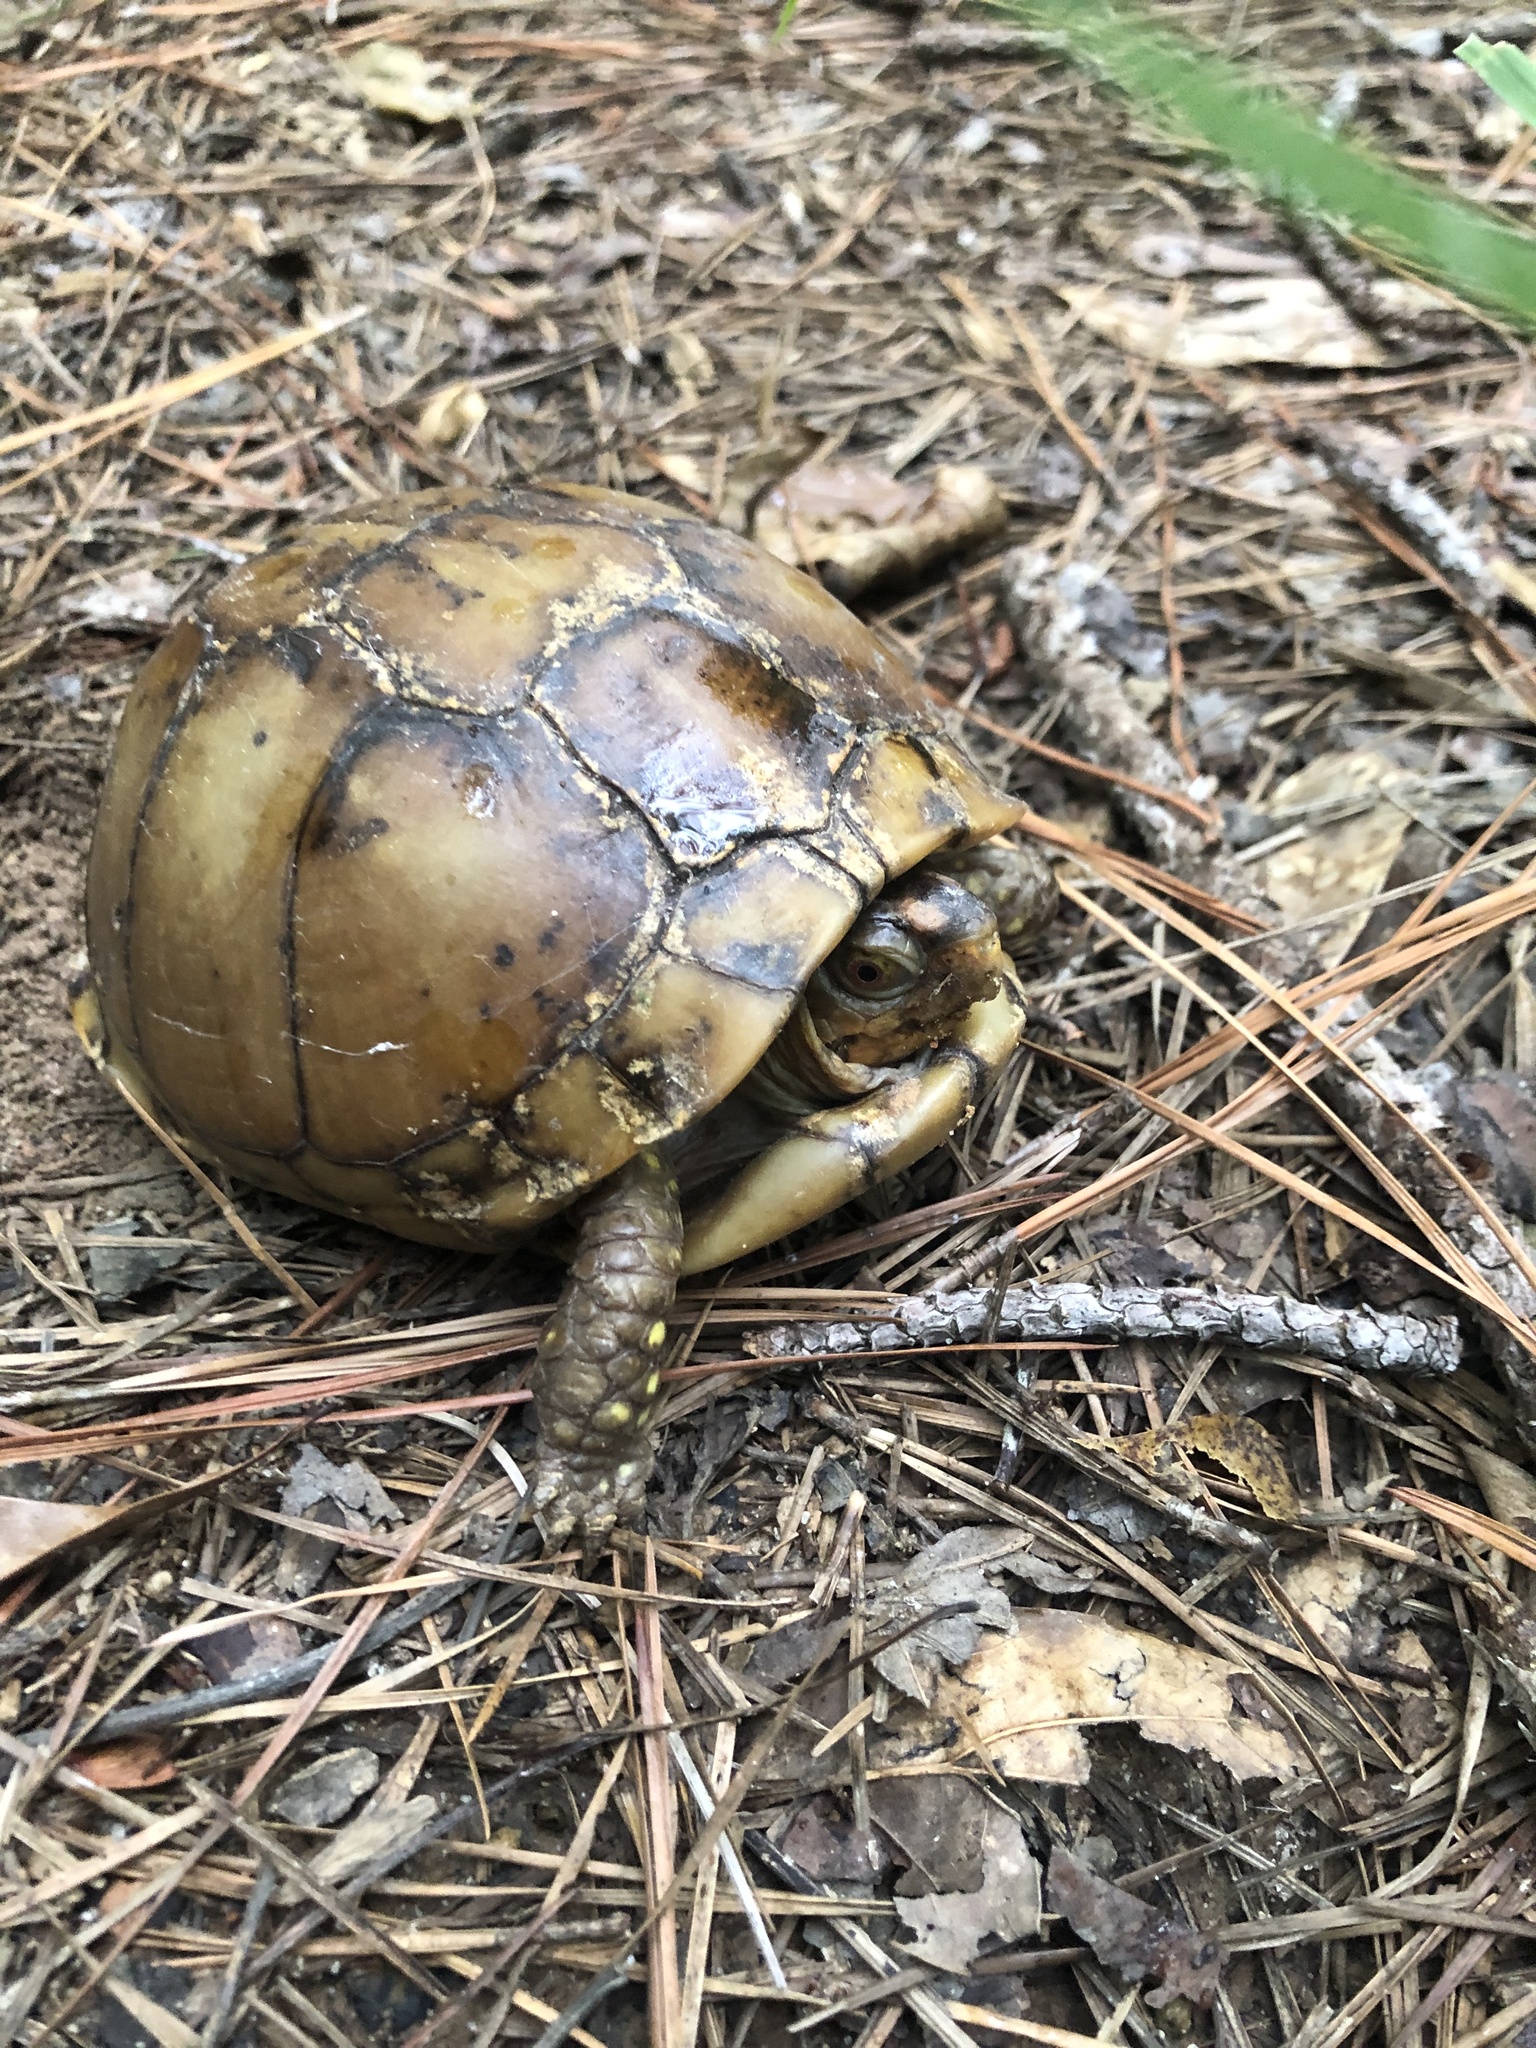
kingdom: Animalia
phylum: Chordata
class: Testudines
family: Emydidae
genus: Terrapene
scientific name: Terrapene carolina
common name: Common box turtle
